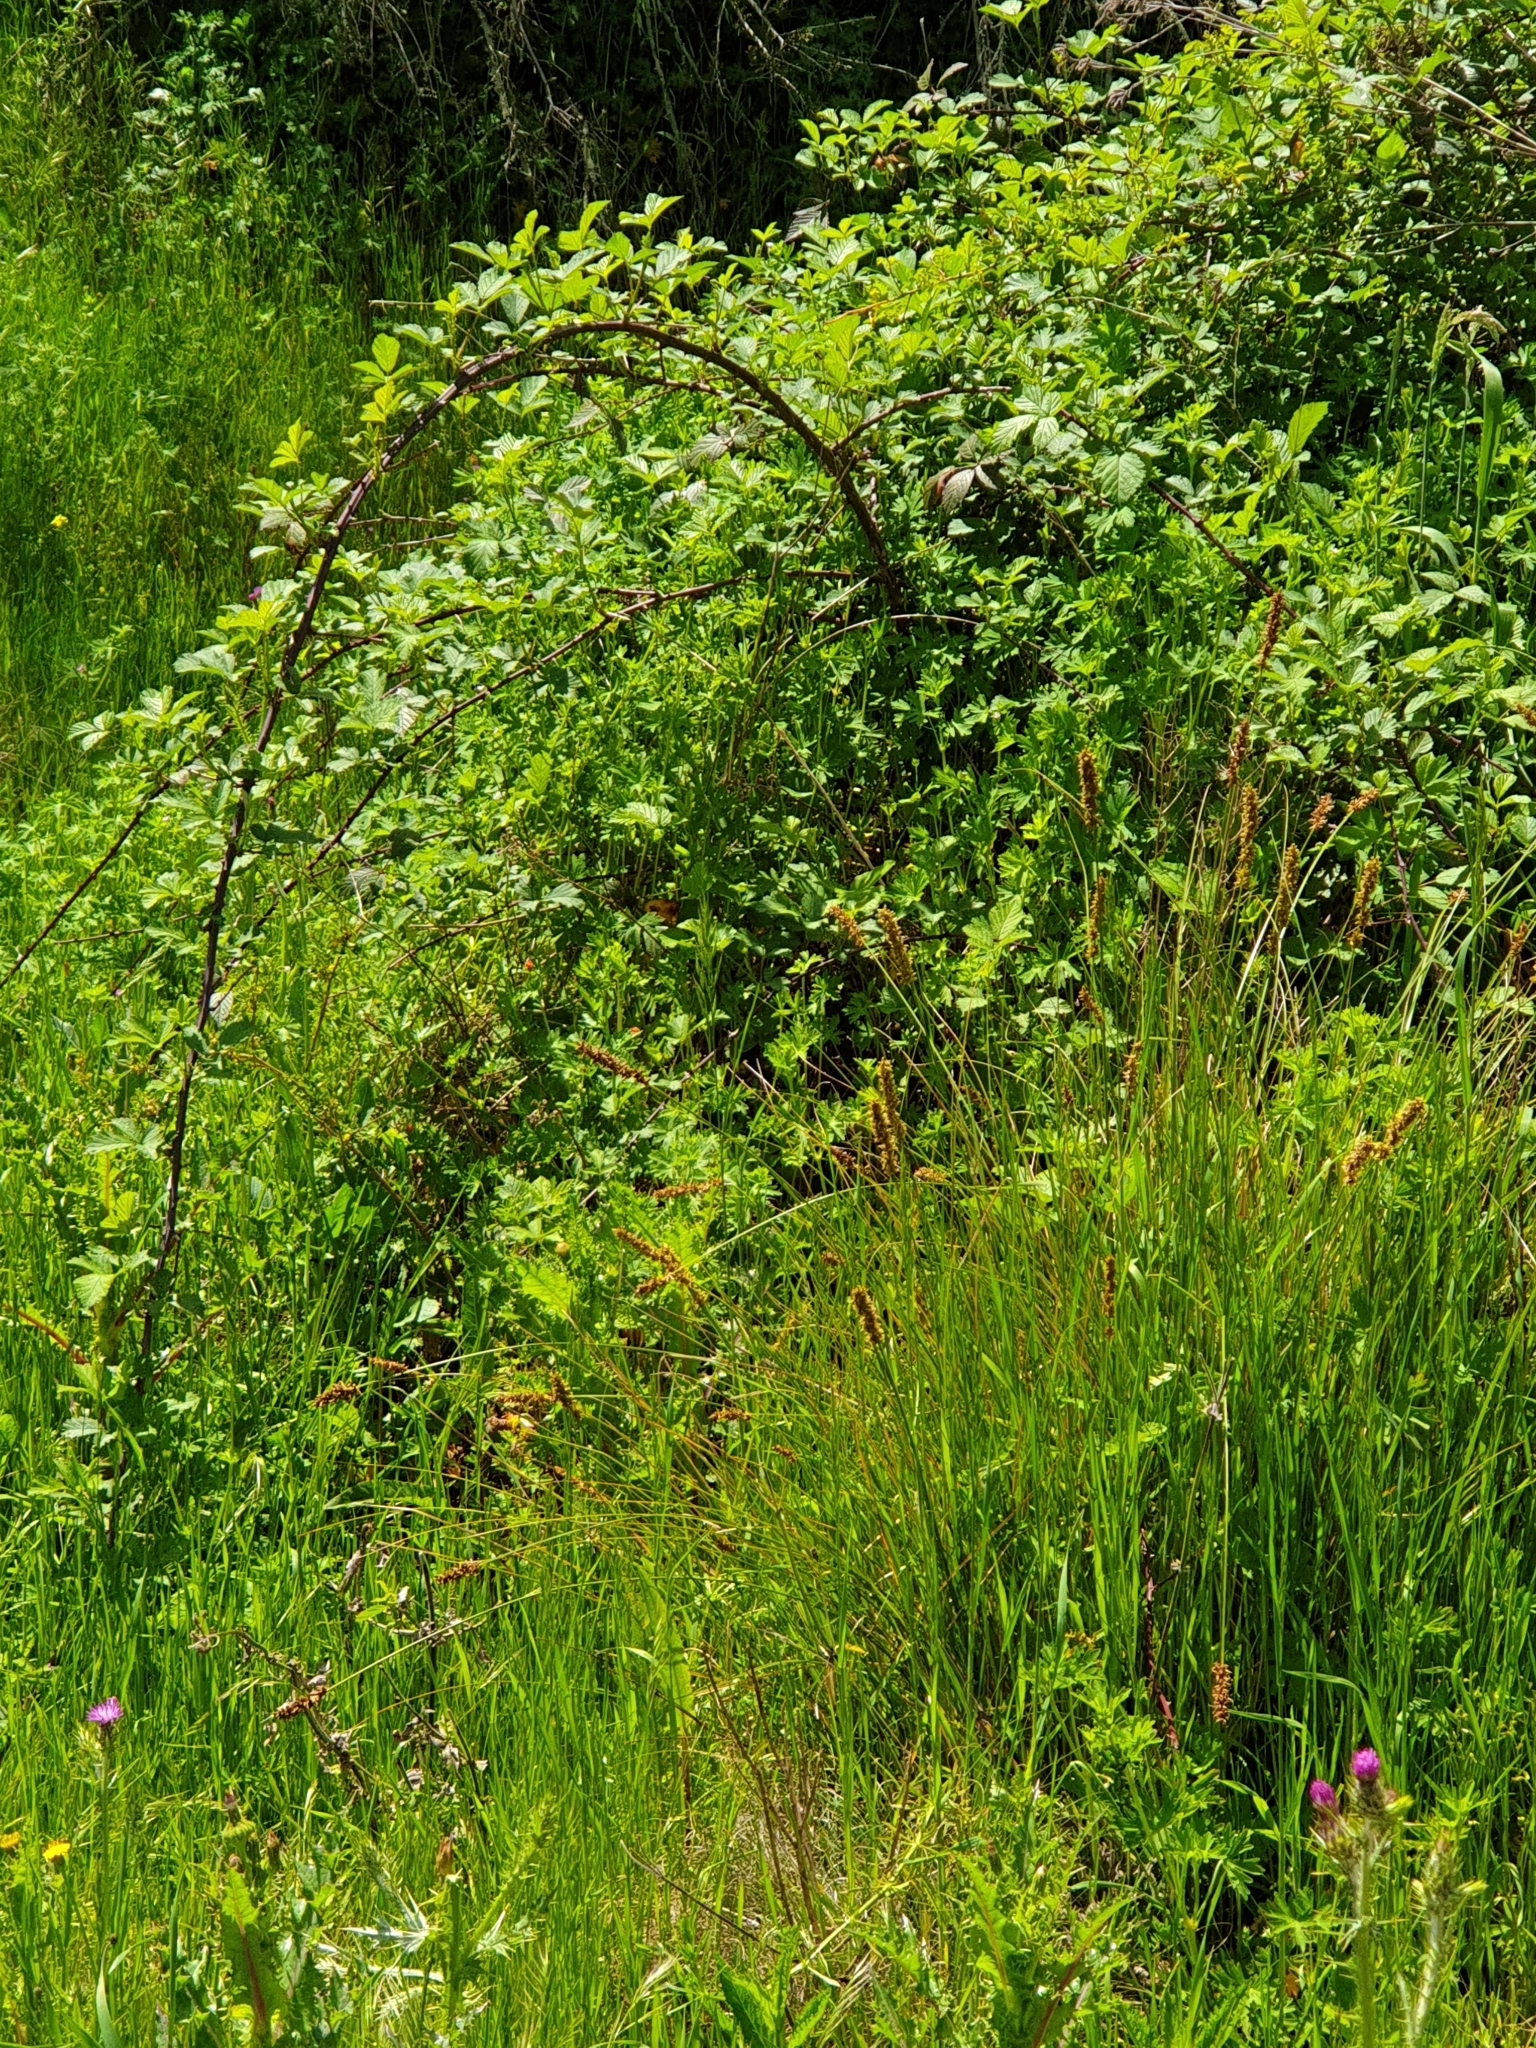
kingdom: Plantae
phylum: Tracheophyta
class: Magnoliopsida
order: Rosales
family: Rosaceae
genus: Rubus
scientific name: Rubus
